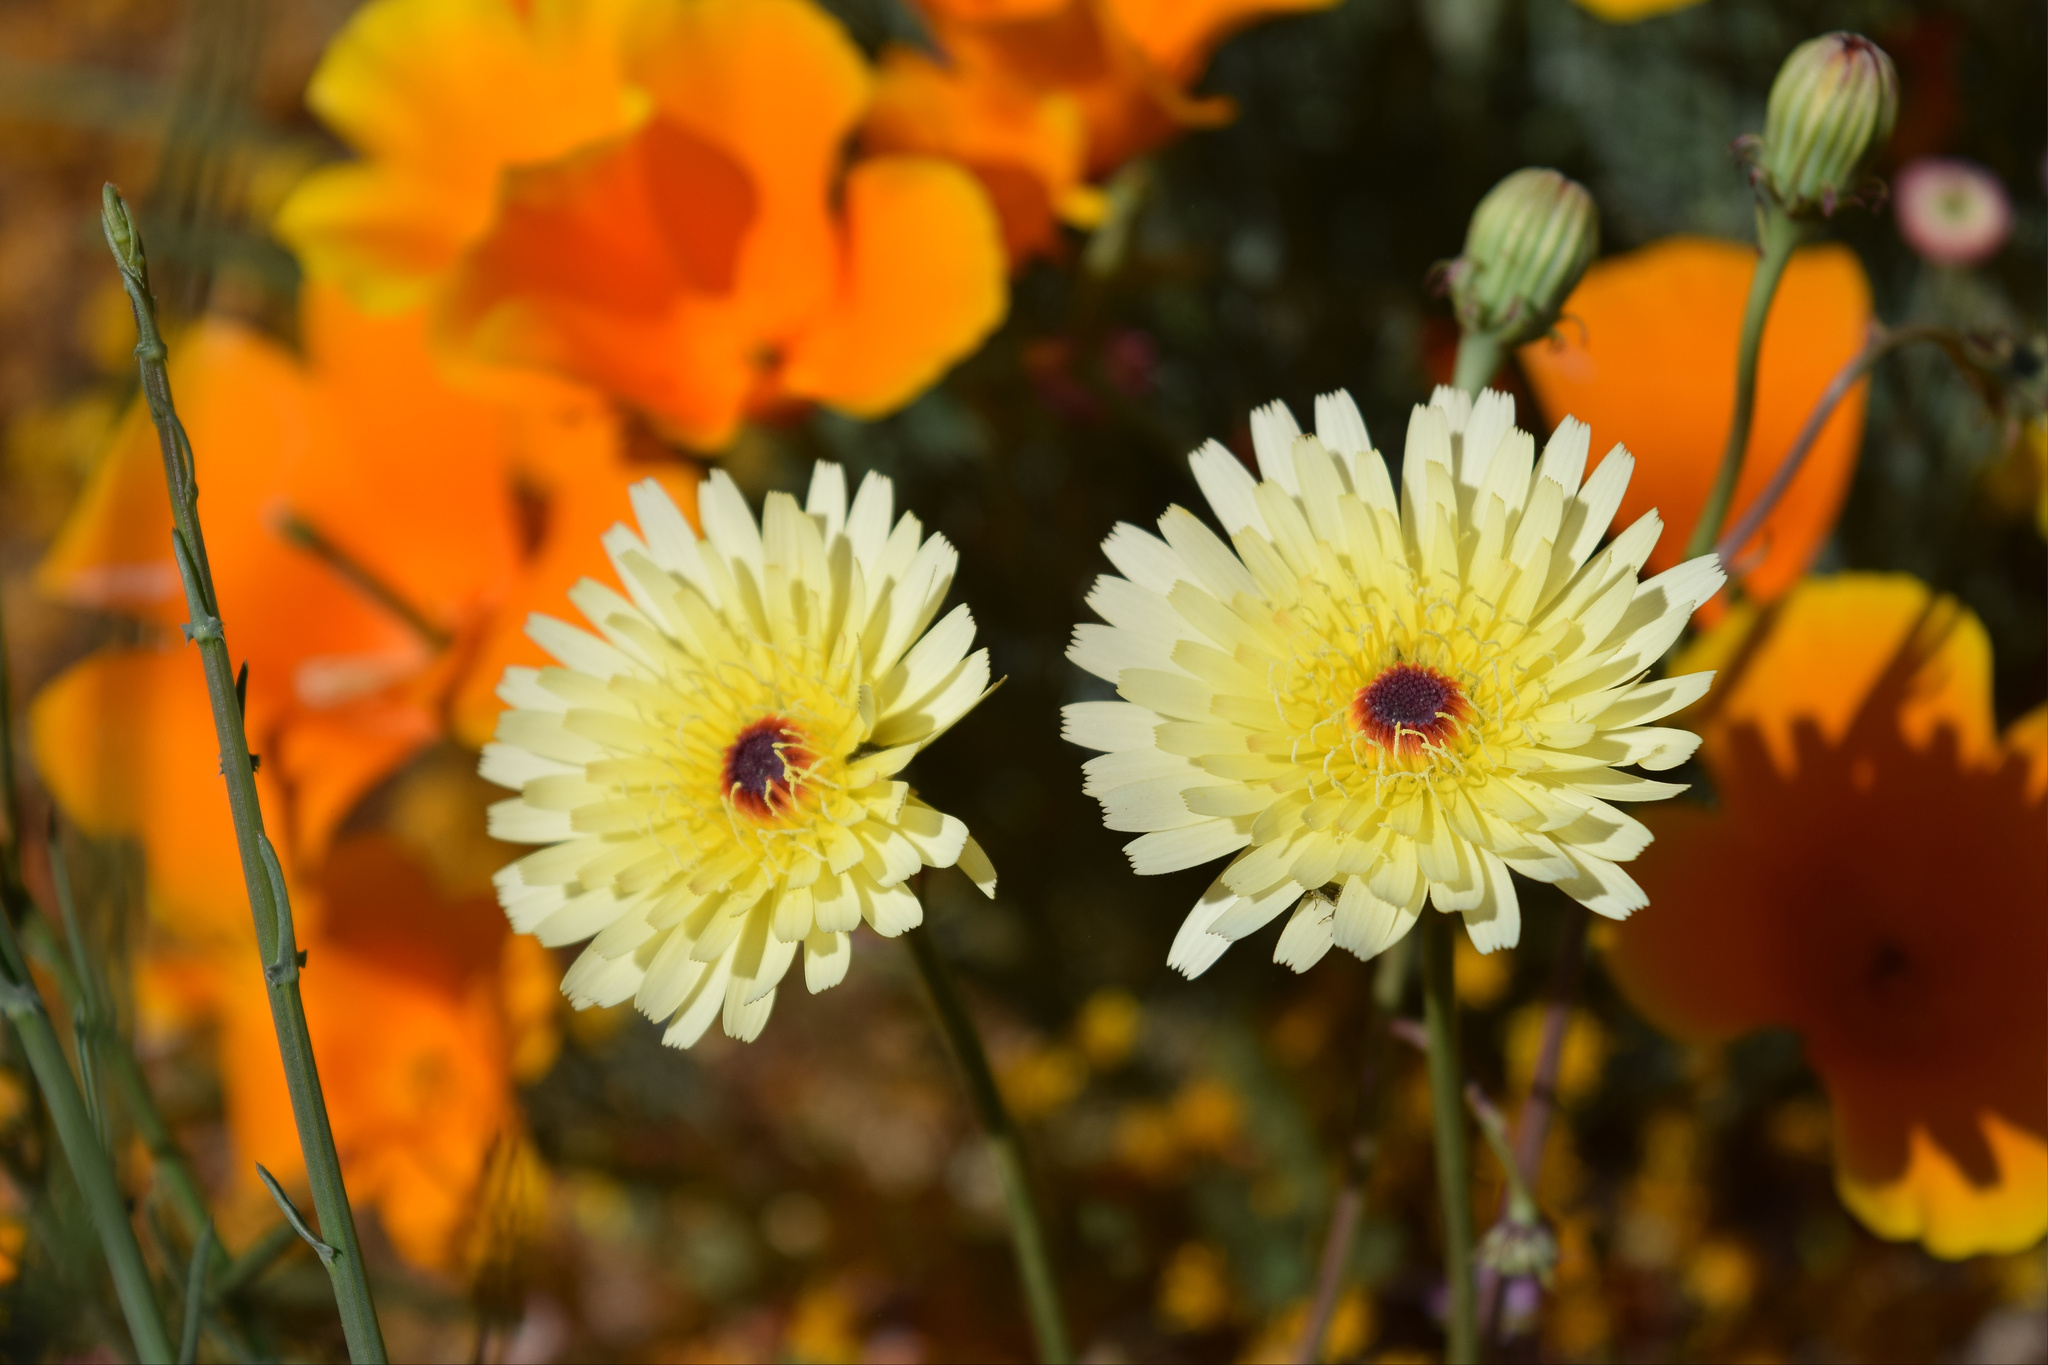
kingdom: Plantae
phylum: Tracheophyta
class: Magnoliopsida
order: Asterales
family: Asteraceae
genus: Malacothrix
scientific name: Malacothrix glabrata
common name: Smooth desert-dandelion
